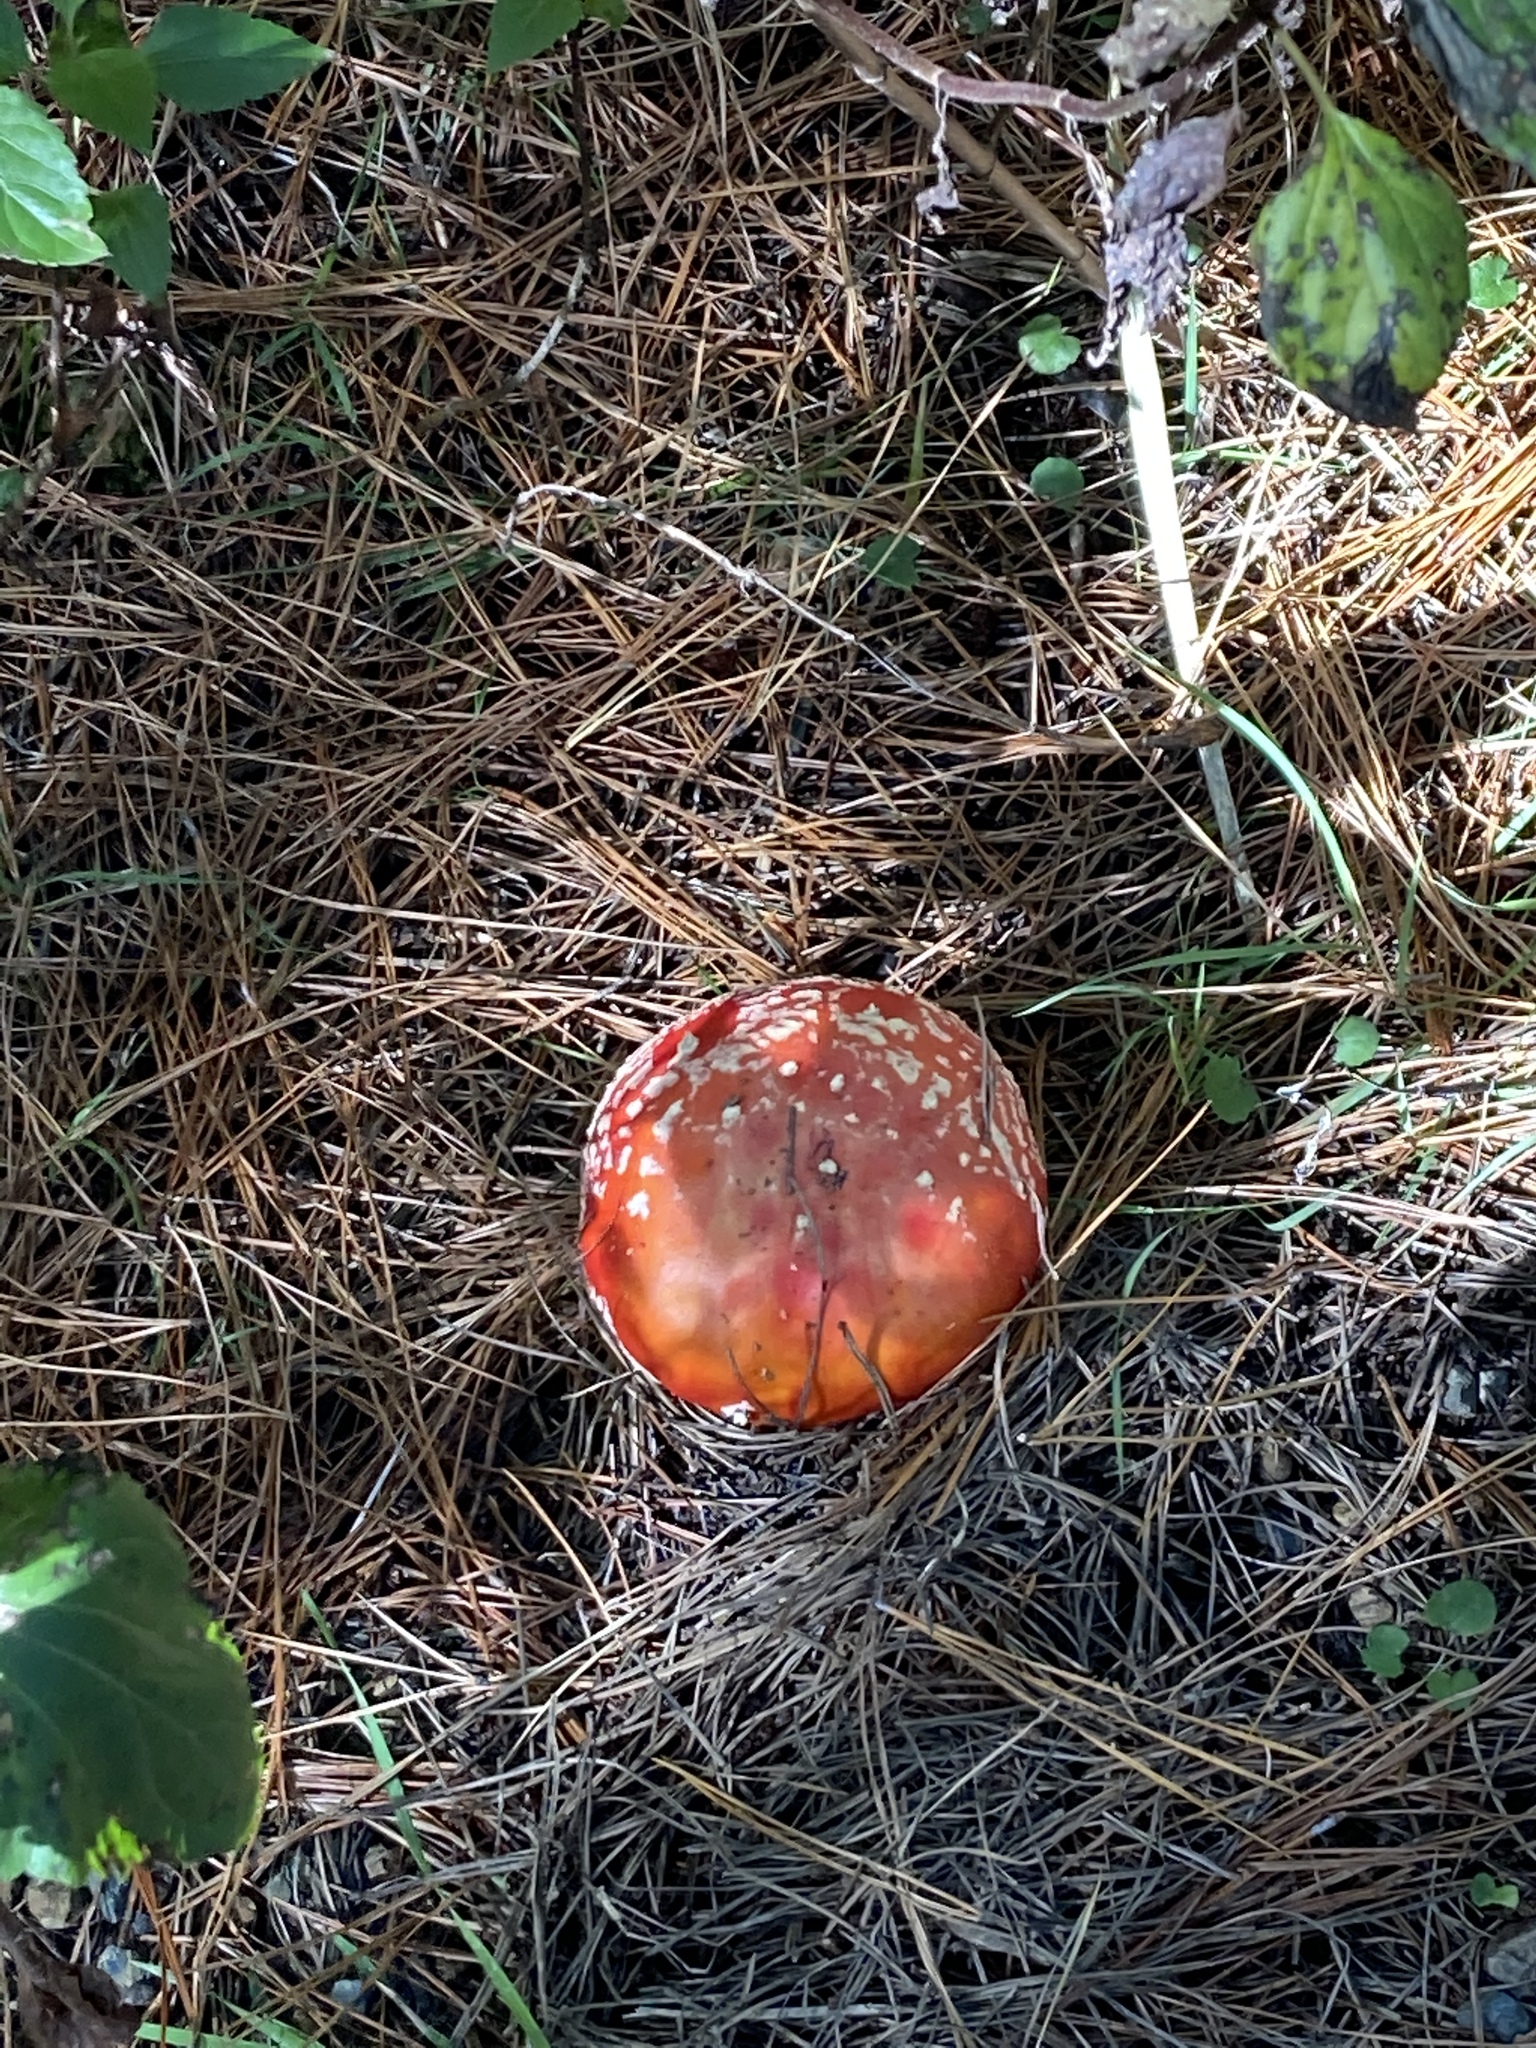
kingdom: Fungi
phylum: Basidiomycota
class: Agaricomycetes
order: Agaricales
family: Amanitaceae
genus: Amanita
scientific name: Amanita muscaria
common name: Fly agaric
